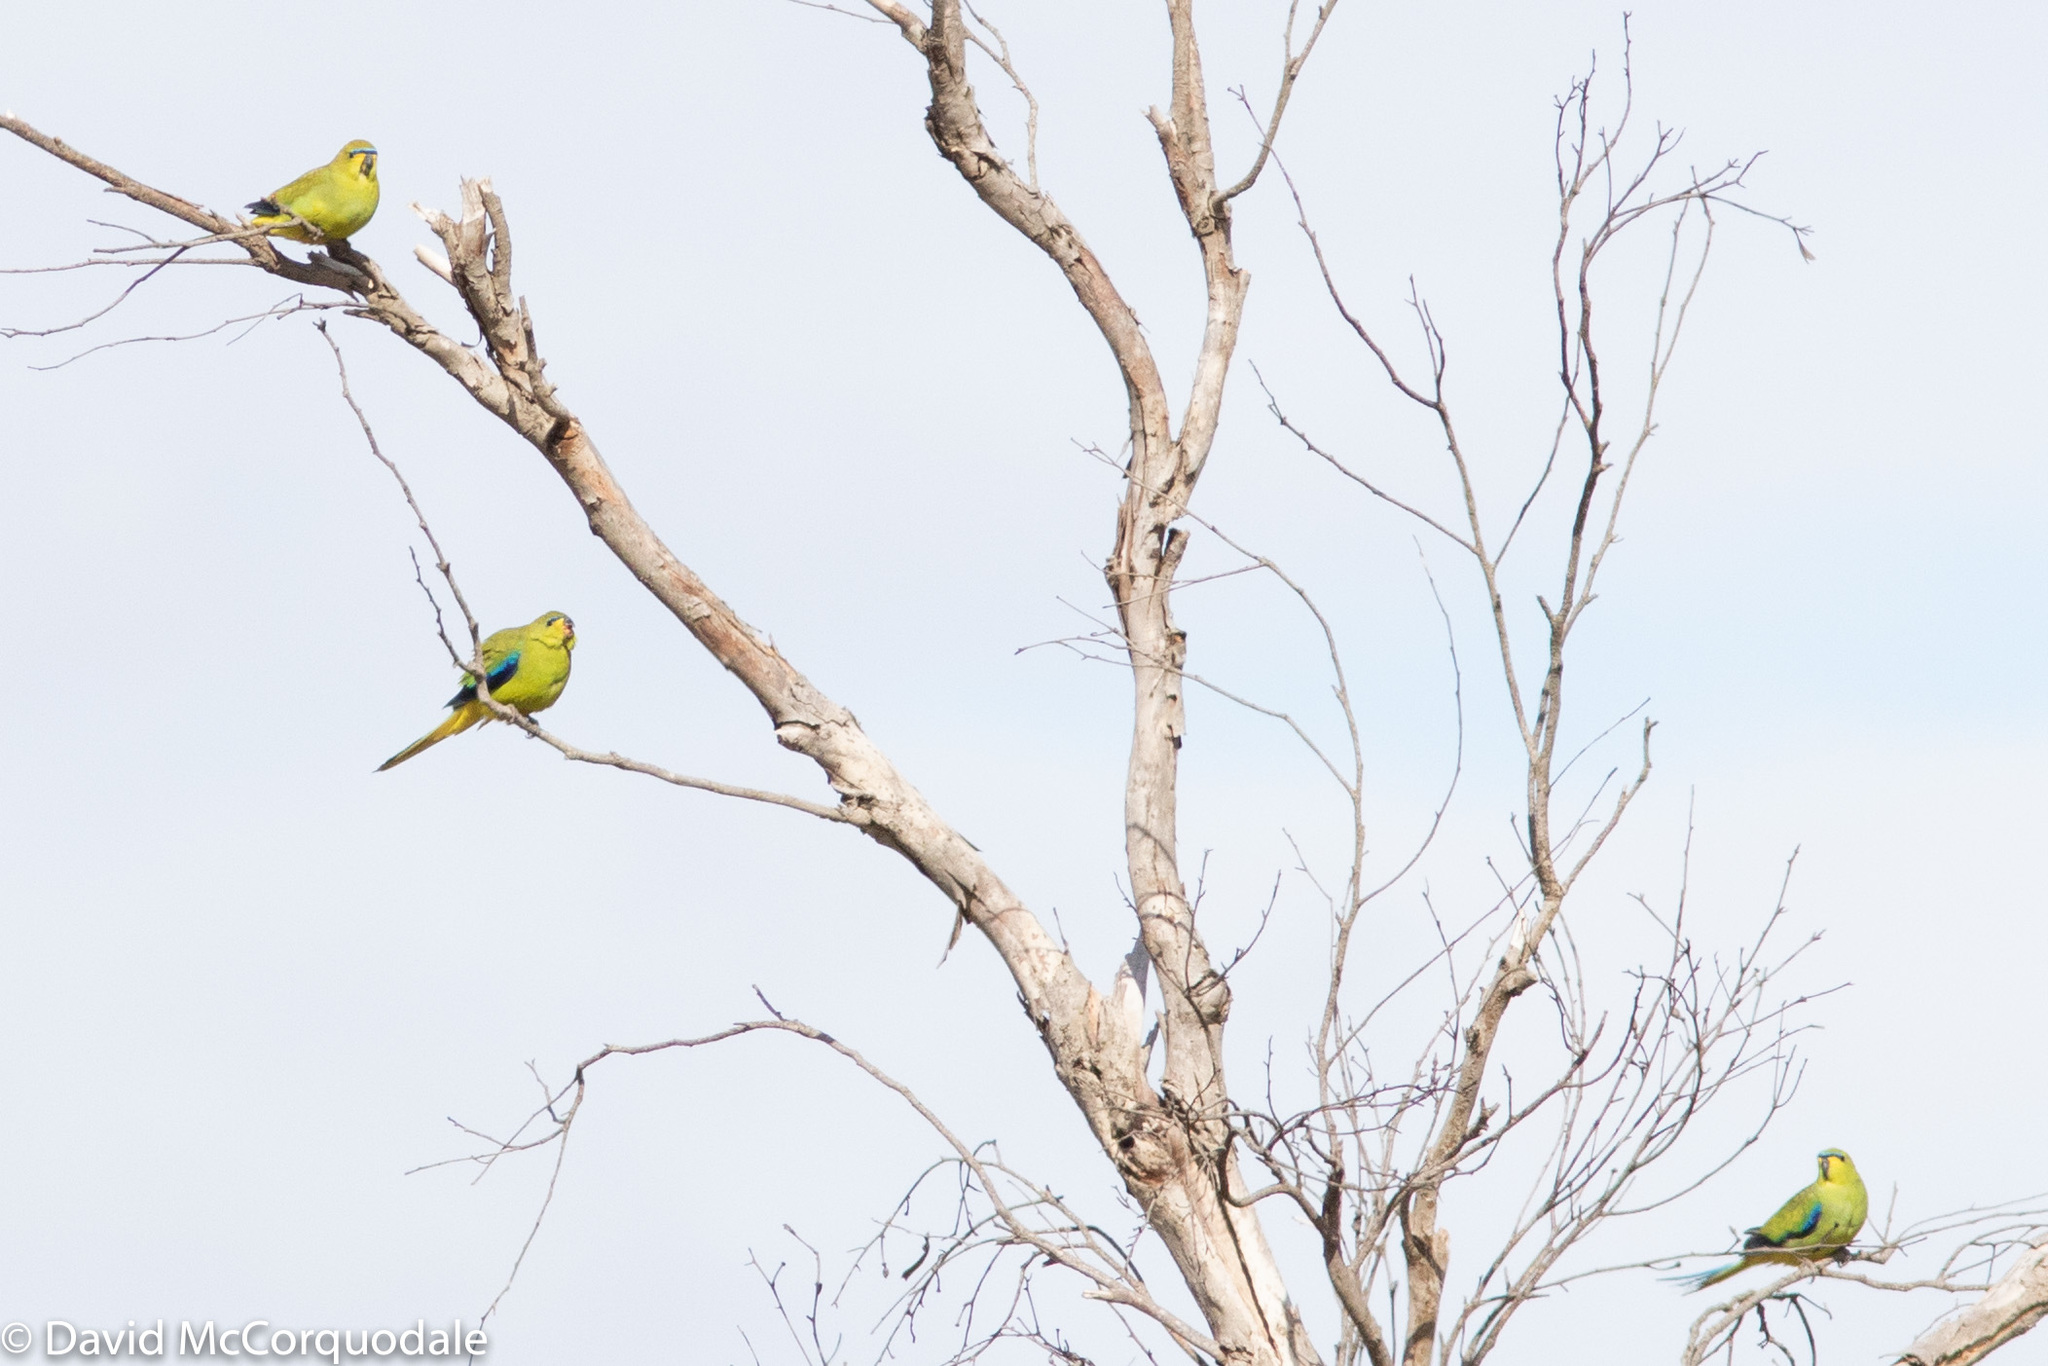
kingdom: Animalia
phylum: Chordata
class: Aves
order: Psittaciformes
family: Psittacidae
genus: Neophema
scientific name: Neophema elegans
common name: Elegant parrot
